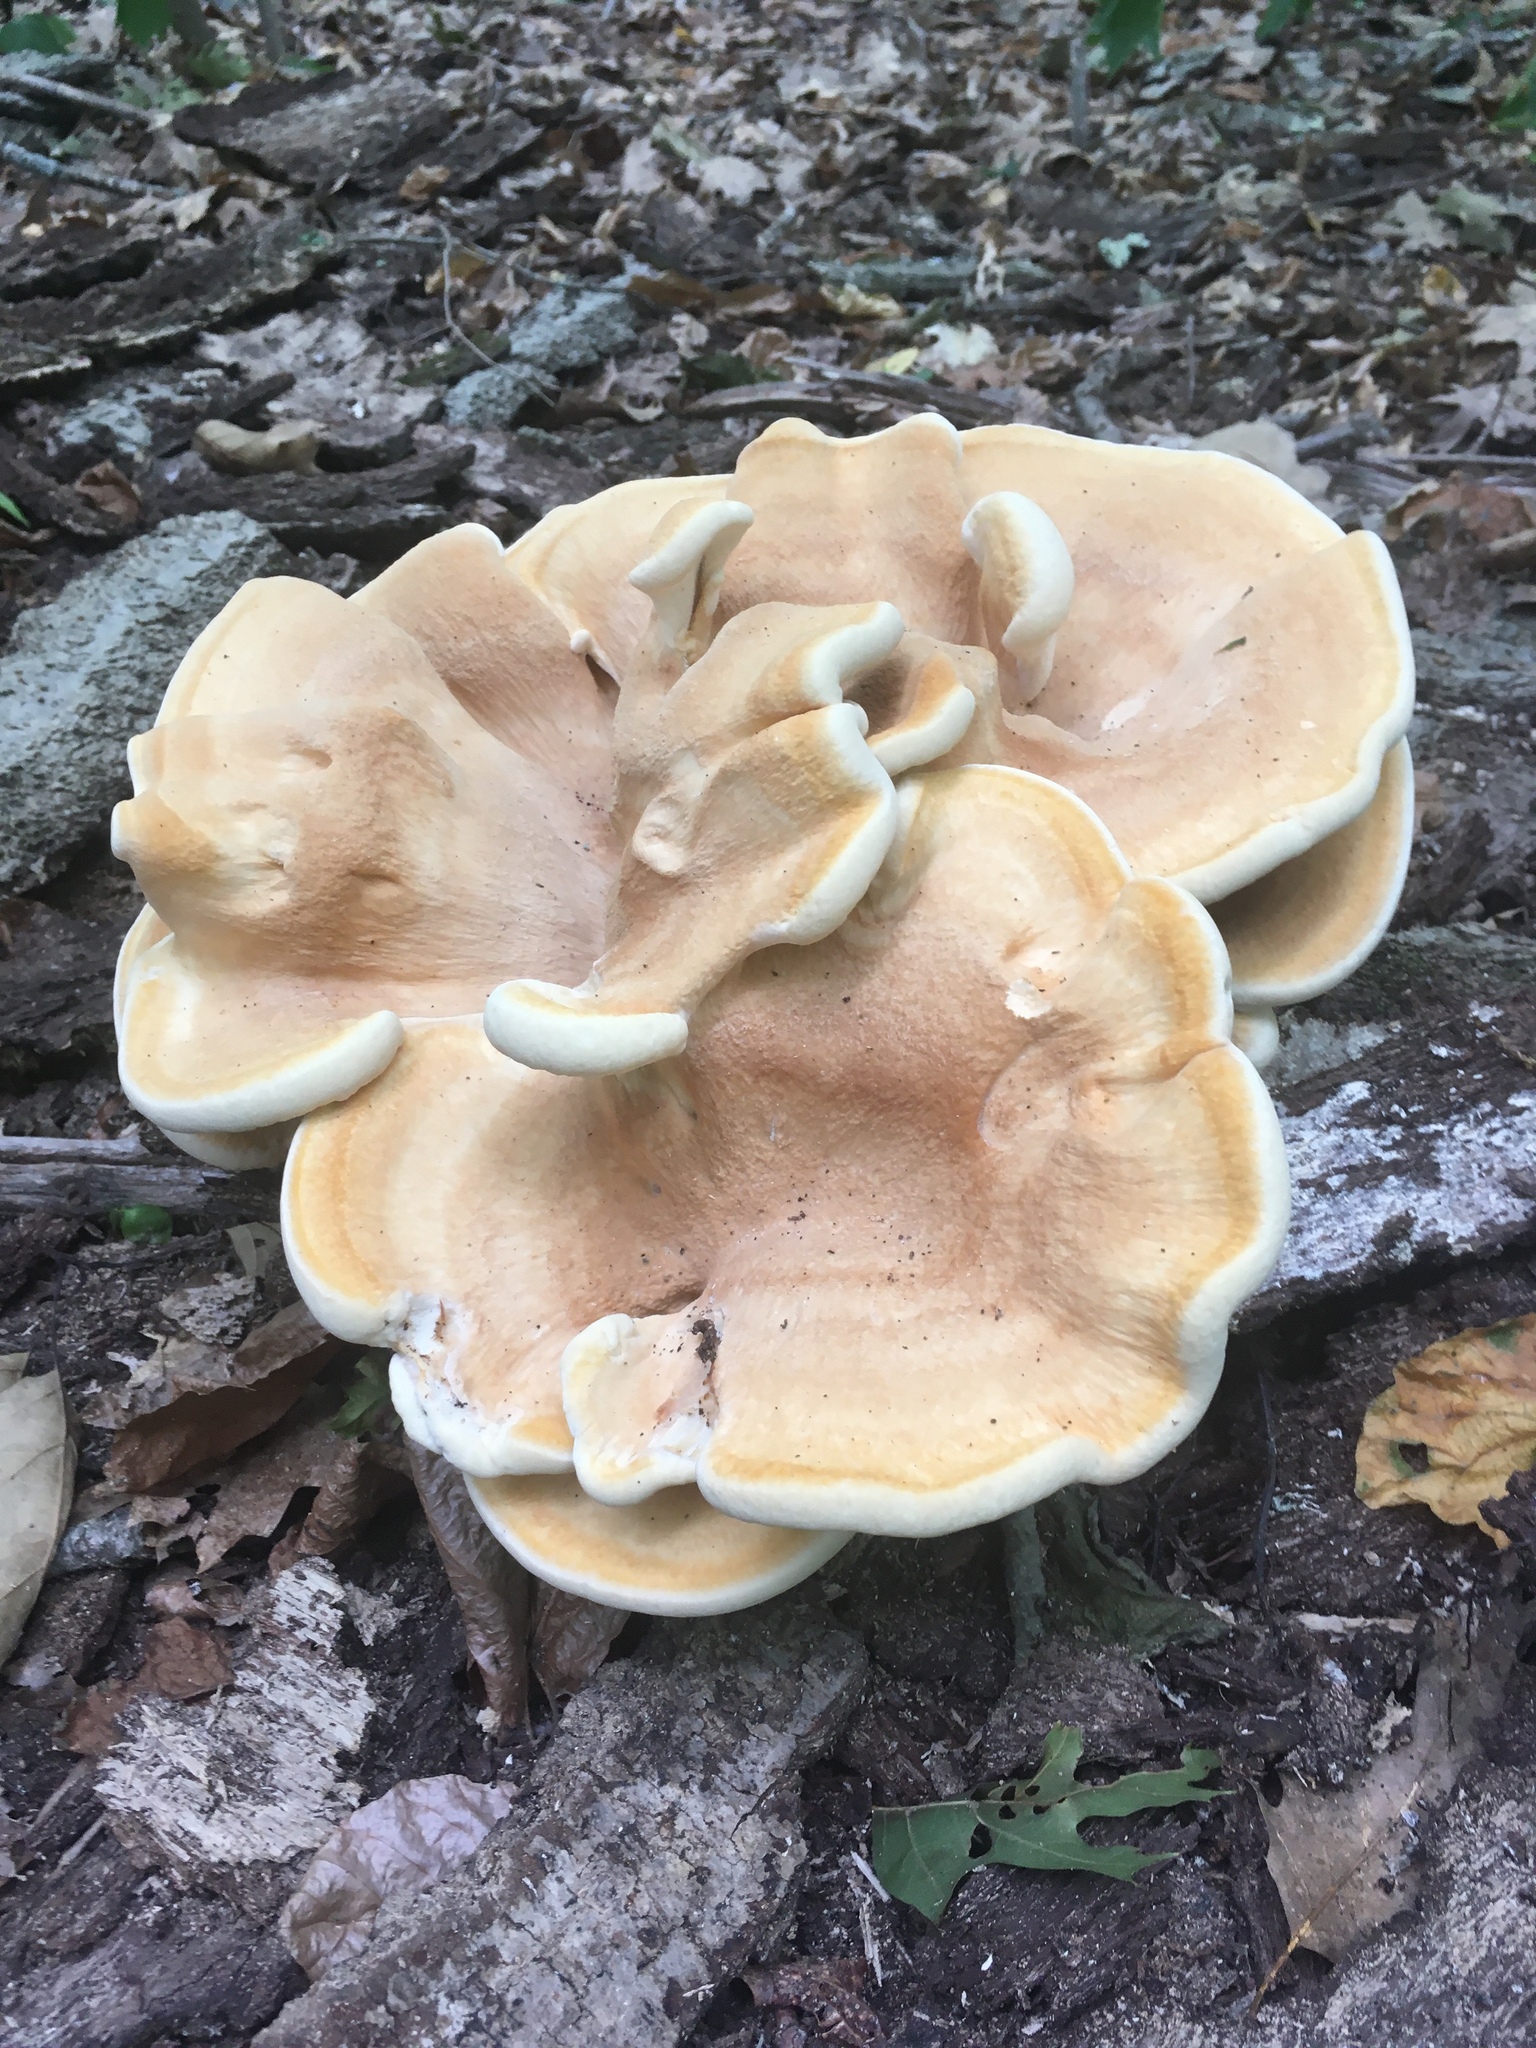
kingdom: Fungi
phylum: Basidiomycota
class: Agaricomycetes
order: Russulales
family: Bondarzewiaceae
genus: Bondarzewia
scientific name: Bondarzewia berkeleyi
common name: Berkeley's polypore
